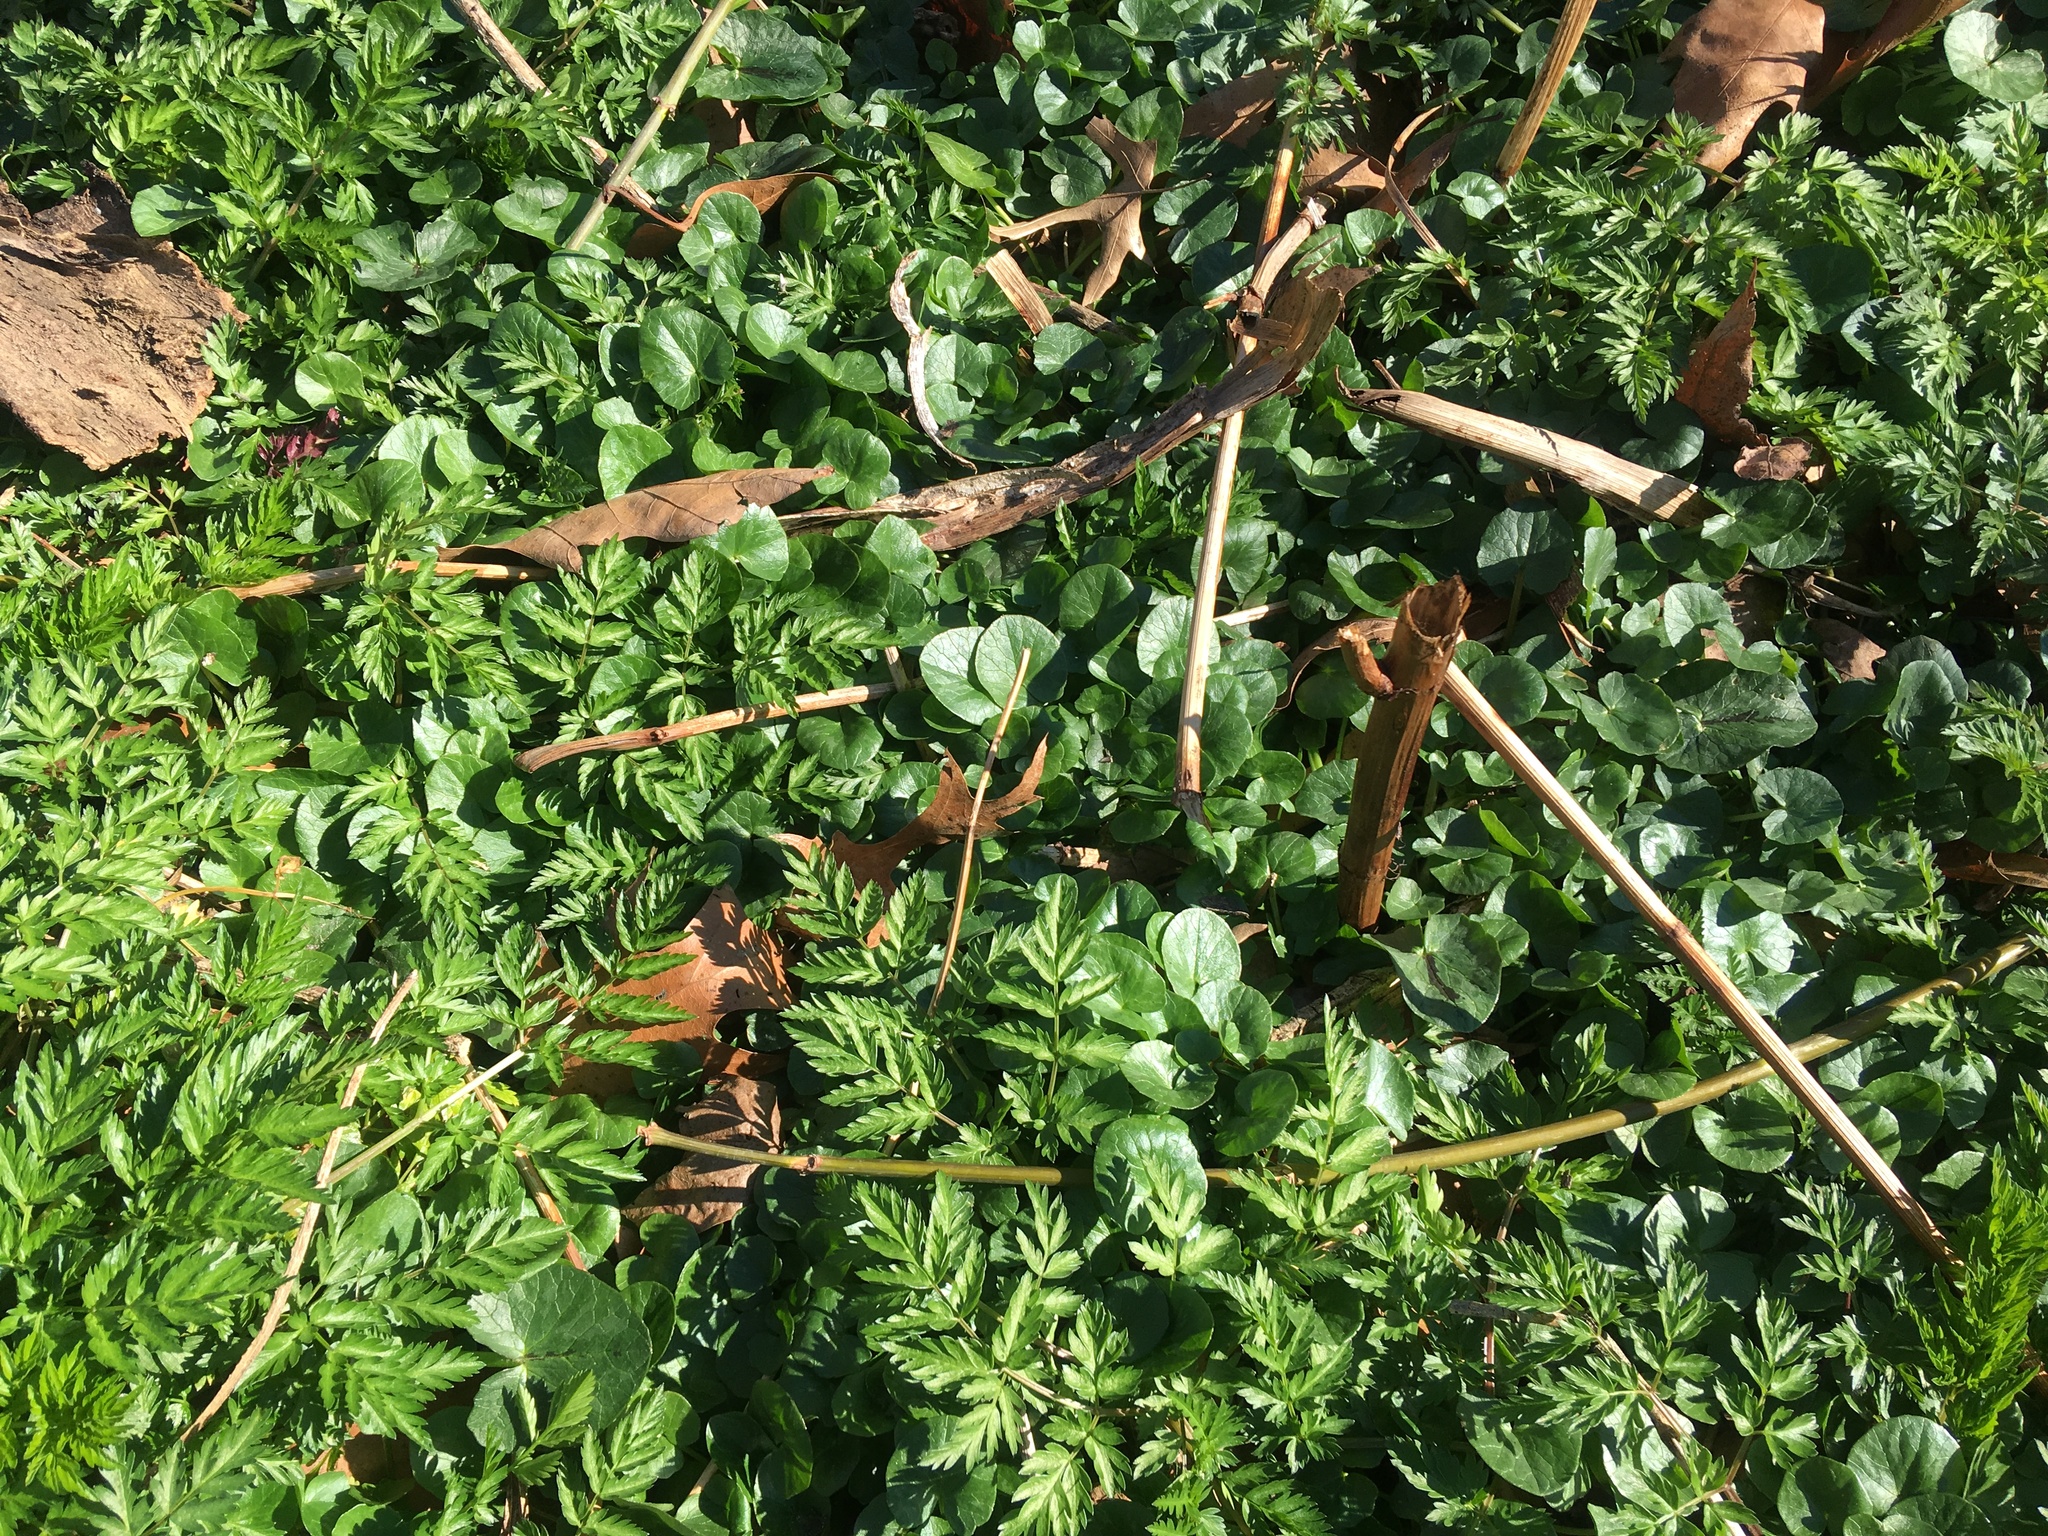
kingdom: Plantae
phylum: Tracheophyta
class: Magnoliopsida
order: Ranunculales
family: Ranunculaceae
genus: Ficaria
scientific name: Ficaria verna
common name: Lesser celandine
